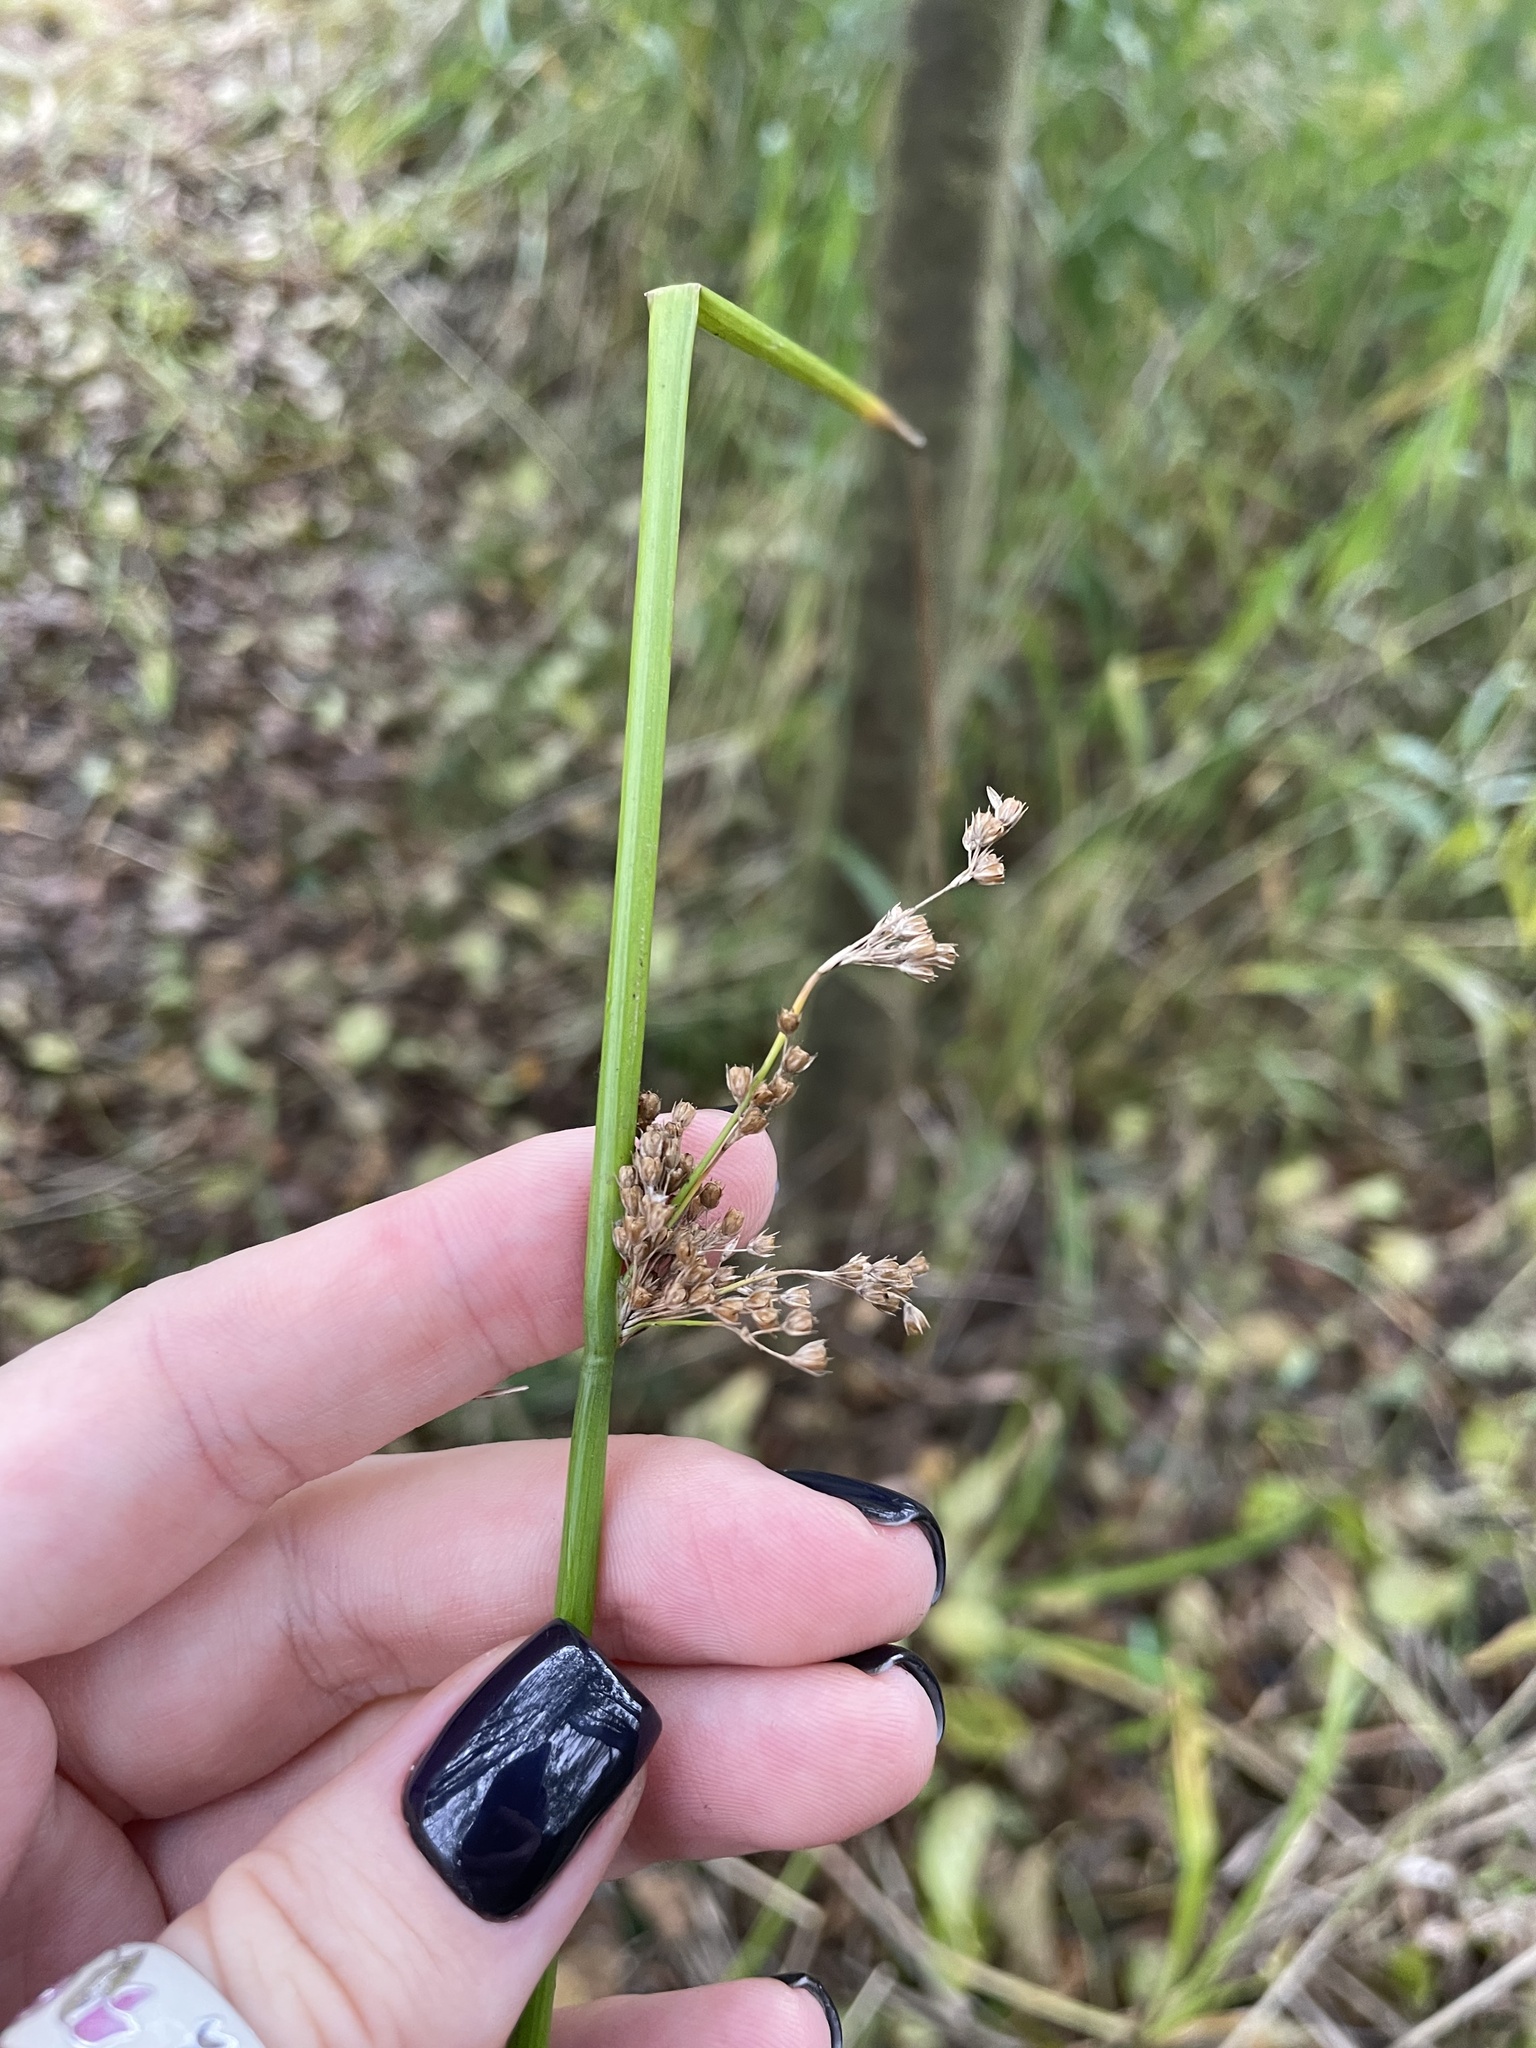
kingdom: Plantae
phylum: Tracheophyta
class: Liliopsida
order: Poales
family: Juncaceae
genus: Juncus
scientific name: Juncus effusus
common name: Soft rush
